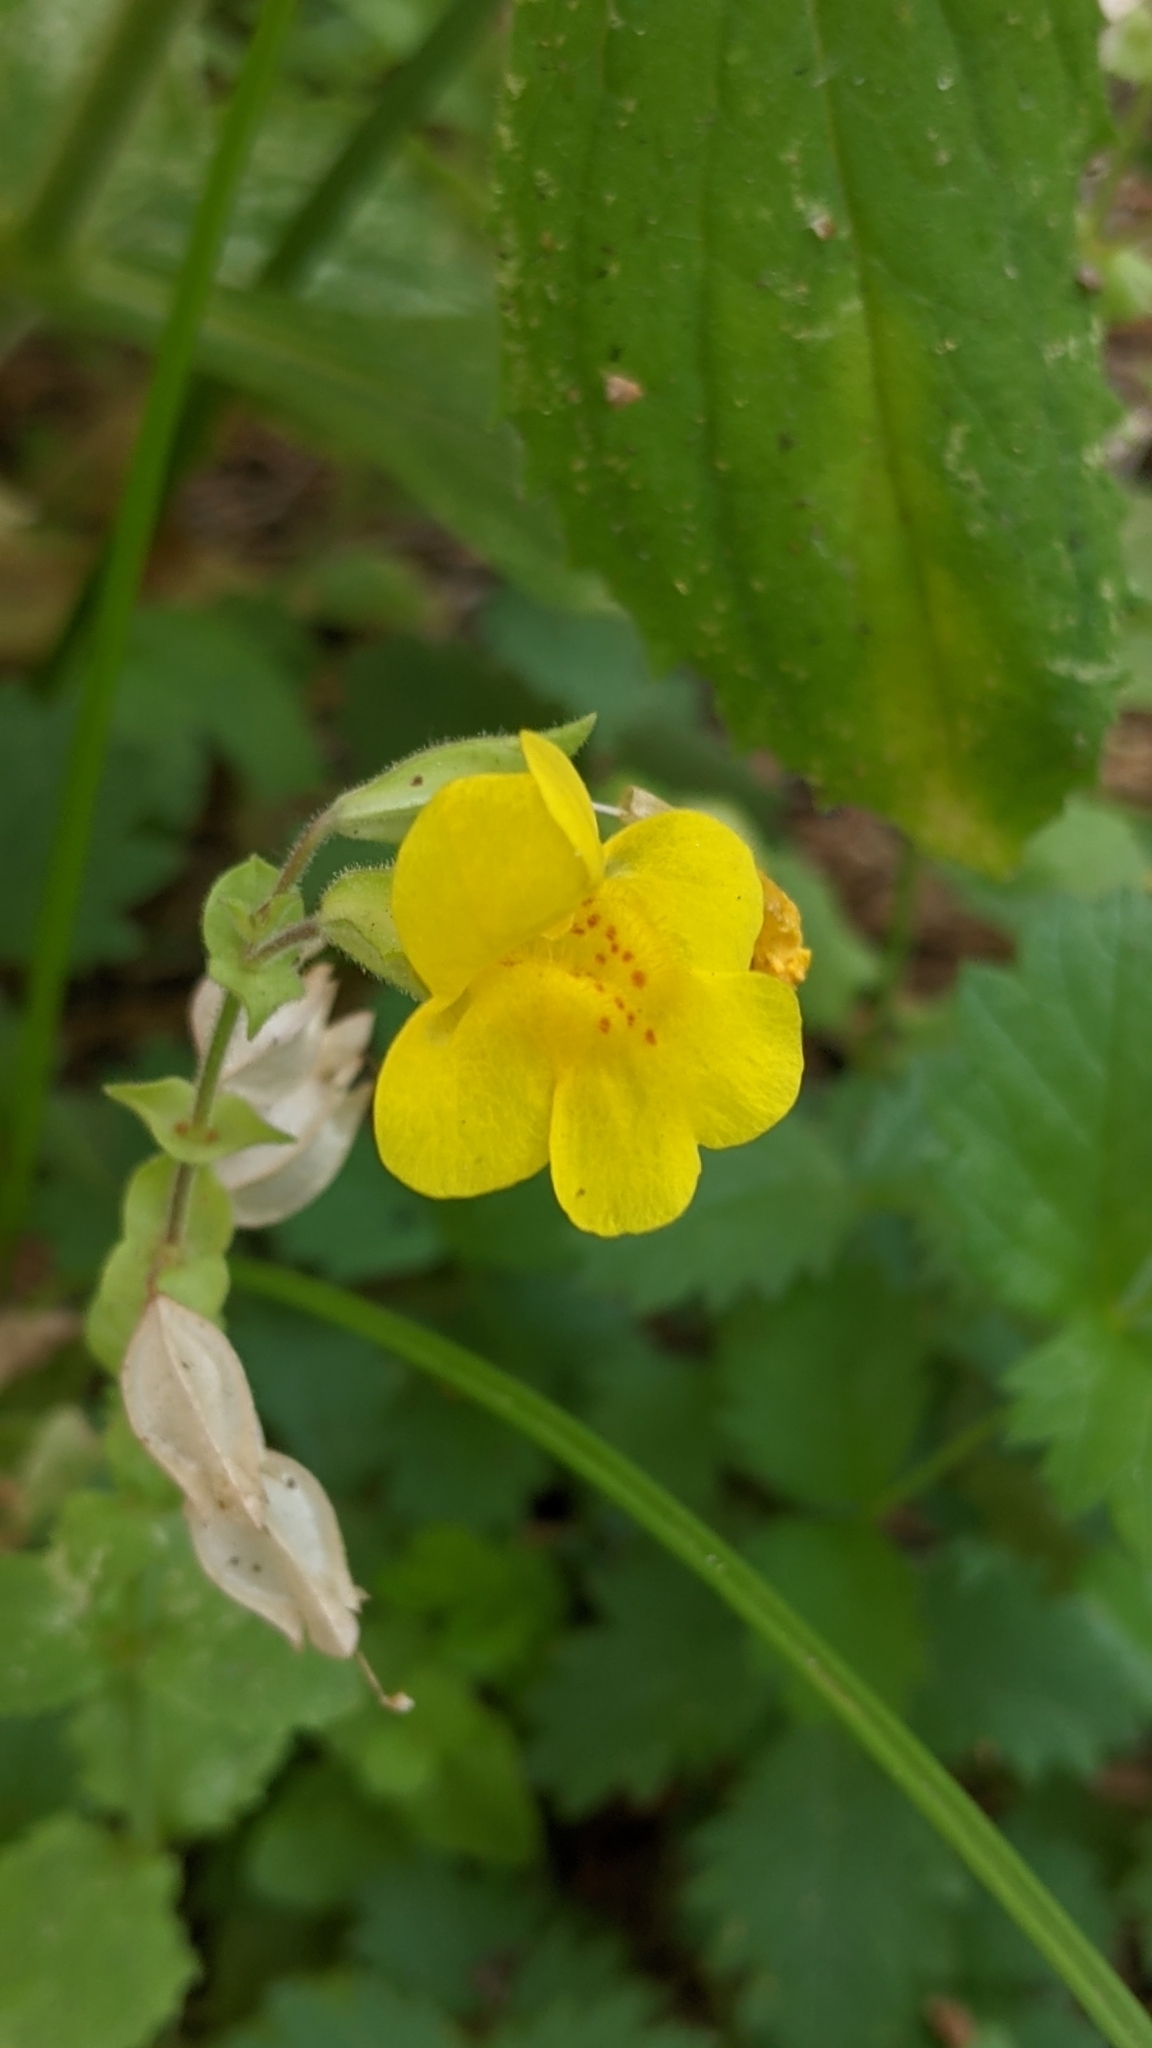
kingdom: Plantae
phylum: Tracheophyta
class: Magnoliopsida
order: Lamiales
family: Phrymaceae
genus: Erythranthe
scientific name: Erythranthe guttata
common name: Monkeyflower
